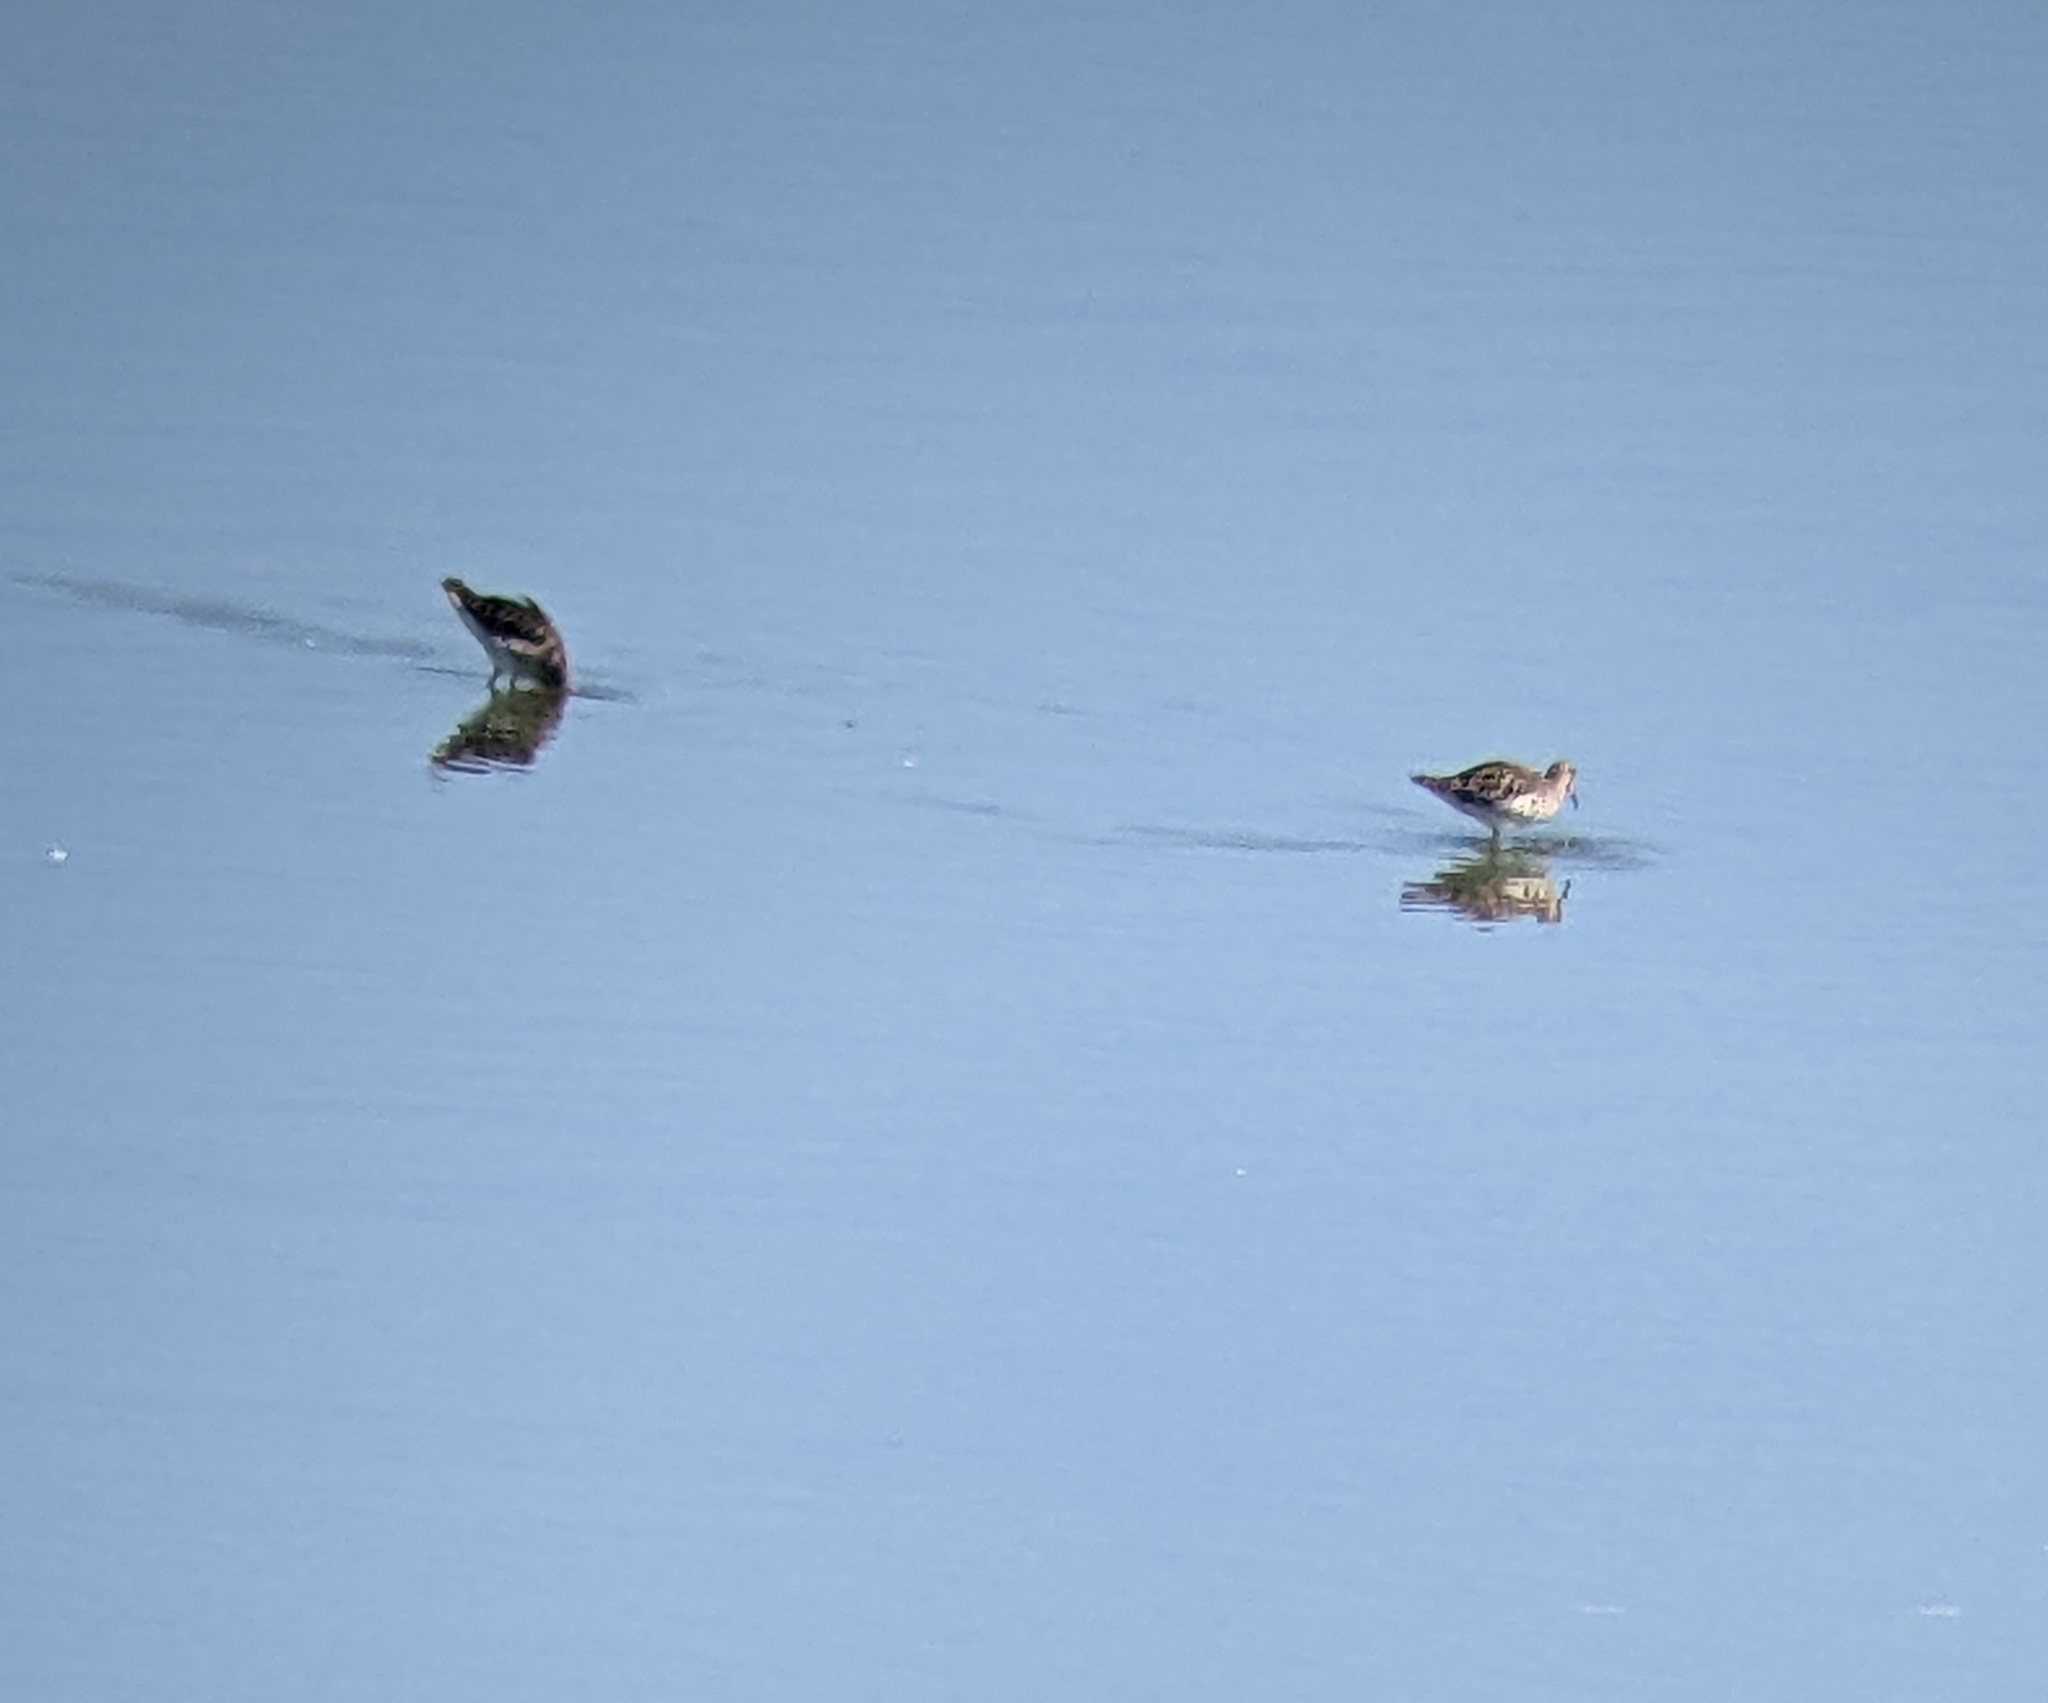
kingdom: Animalia
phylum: Chordata
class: Aves
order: Charadriiformes
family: Scolopacidae
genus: Calidris
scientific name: Calidris pugnax
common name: Ruff
